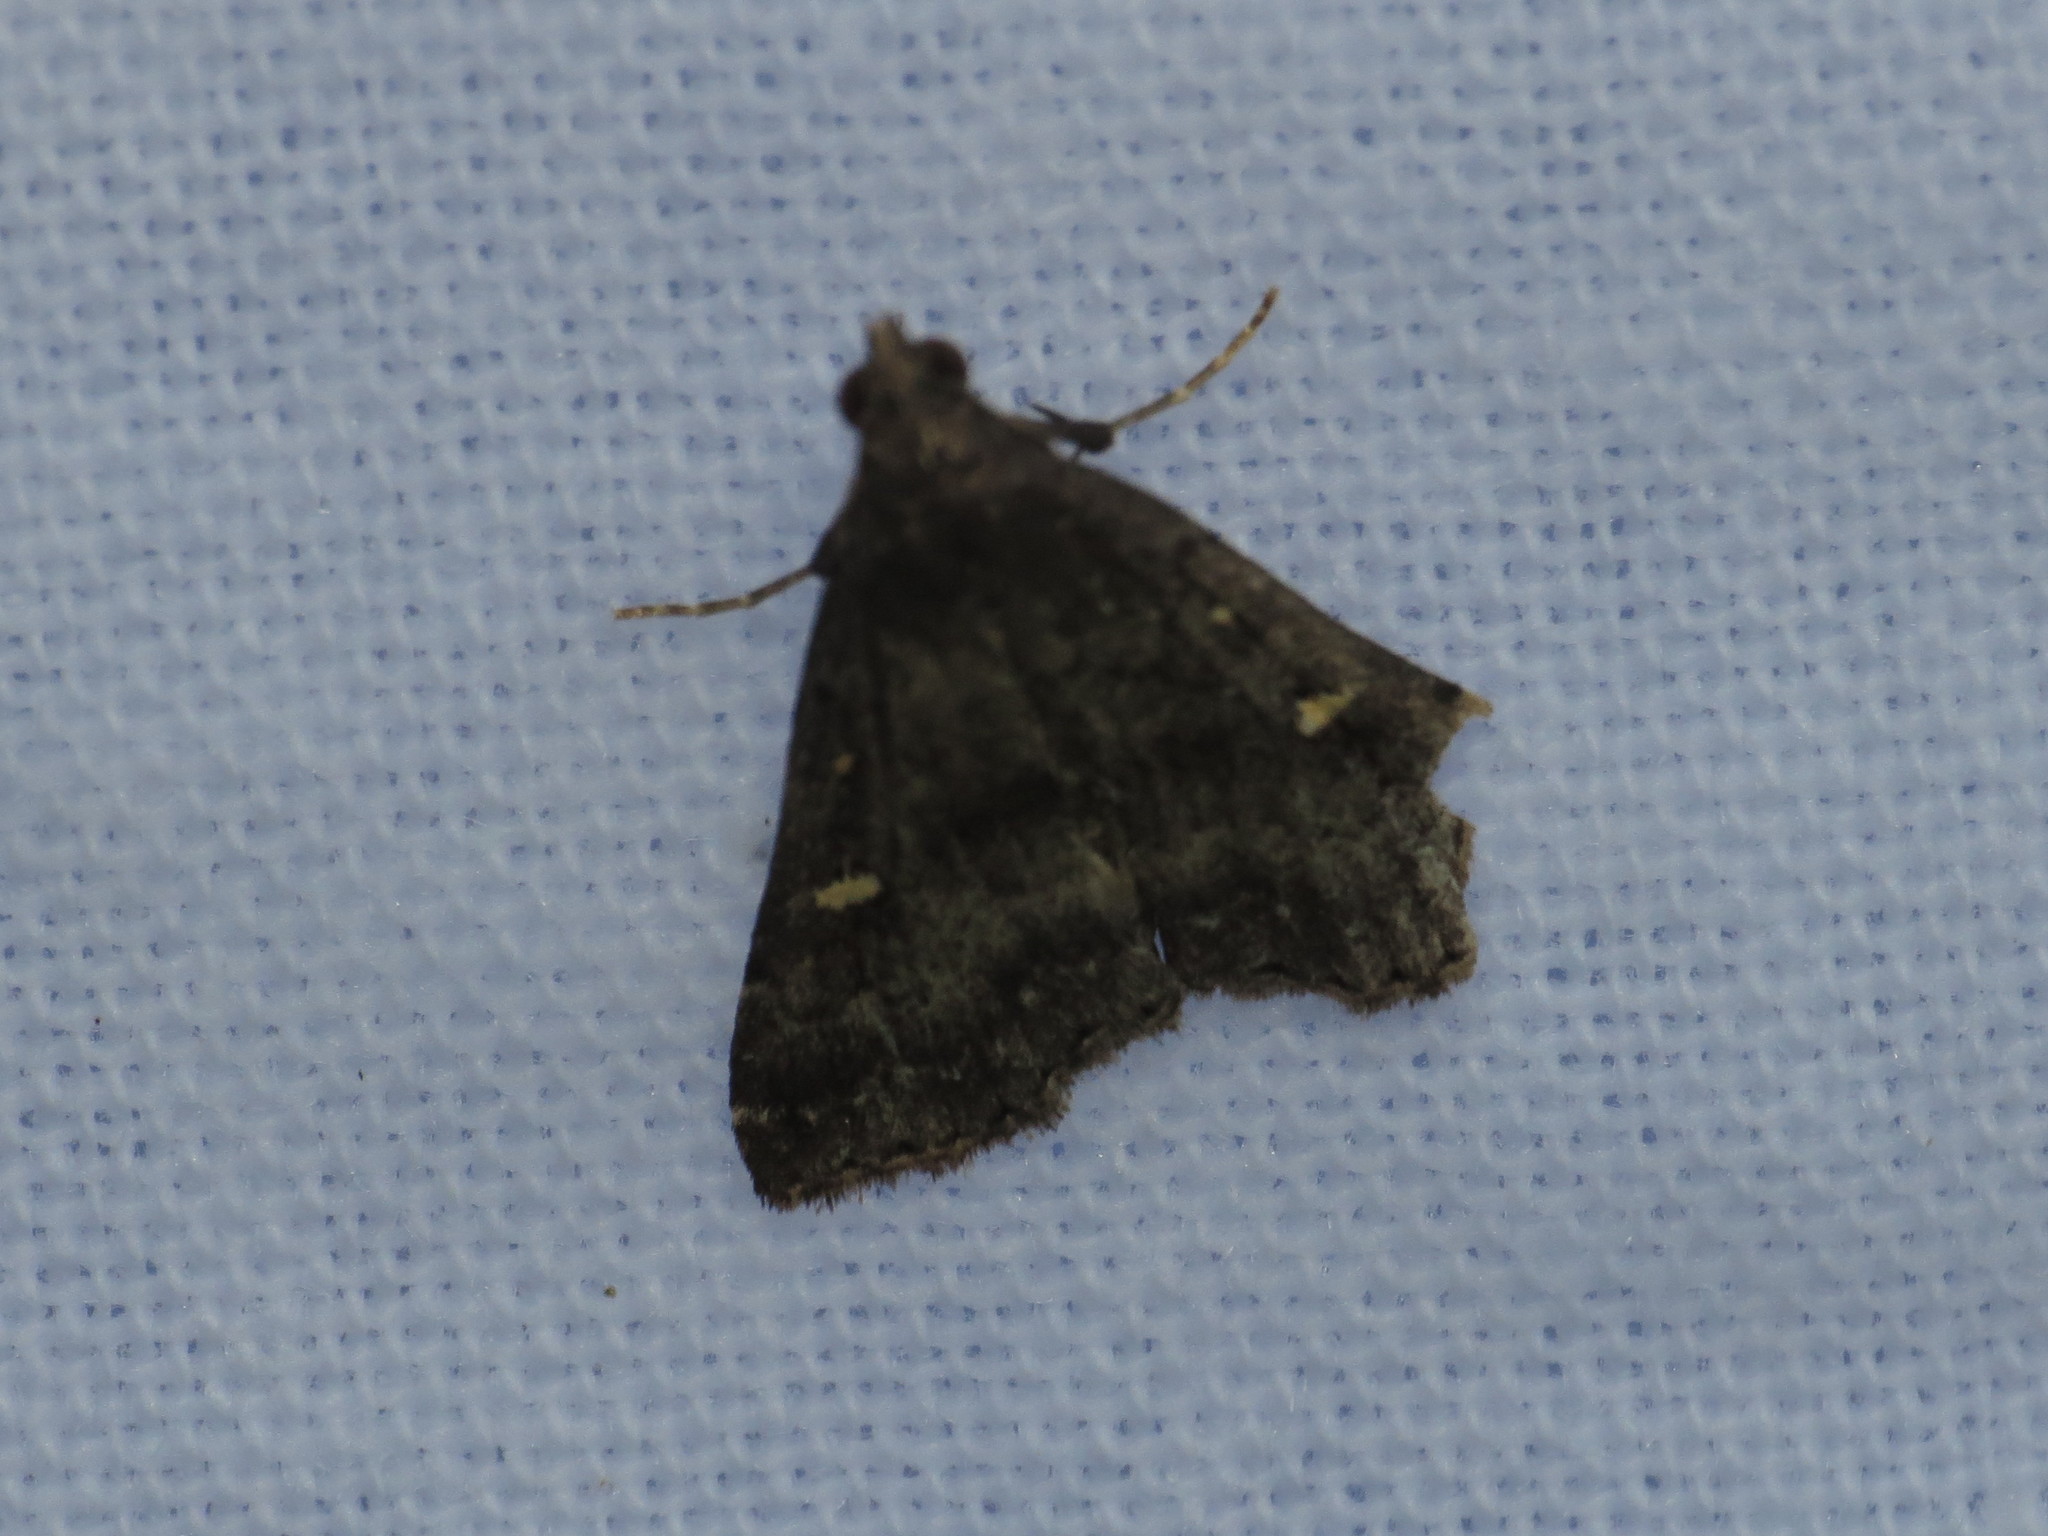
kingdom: Animalia
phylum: Arthropoda
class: Insecta
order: Lepidoptera
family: Erebidae
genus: Tetanolita
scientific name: Tetanolita mynesalis
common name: Smoky tetanolita moth
